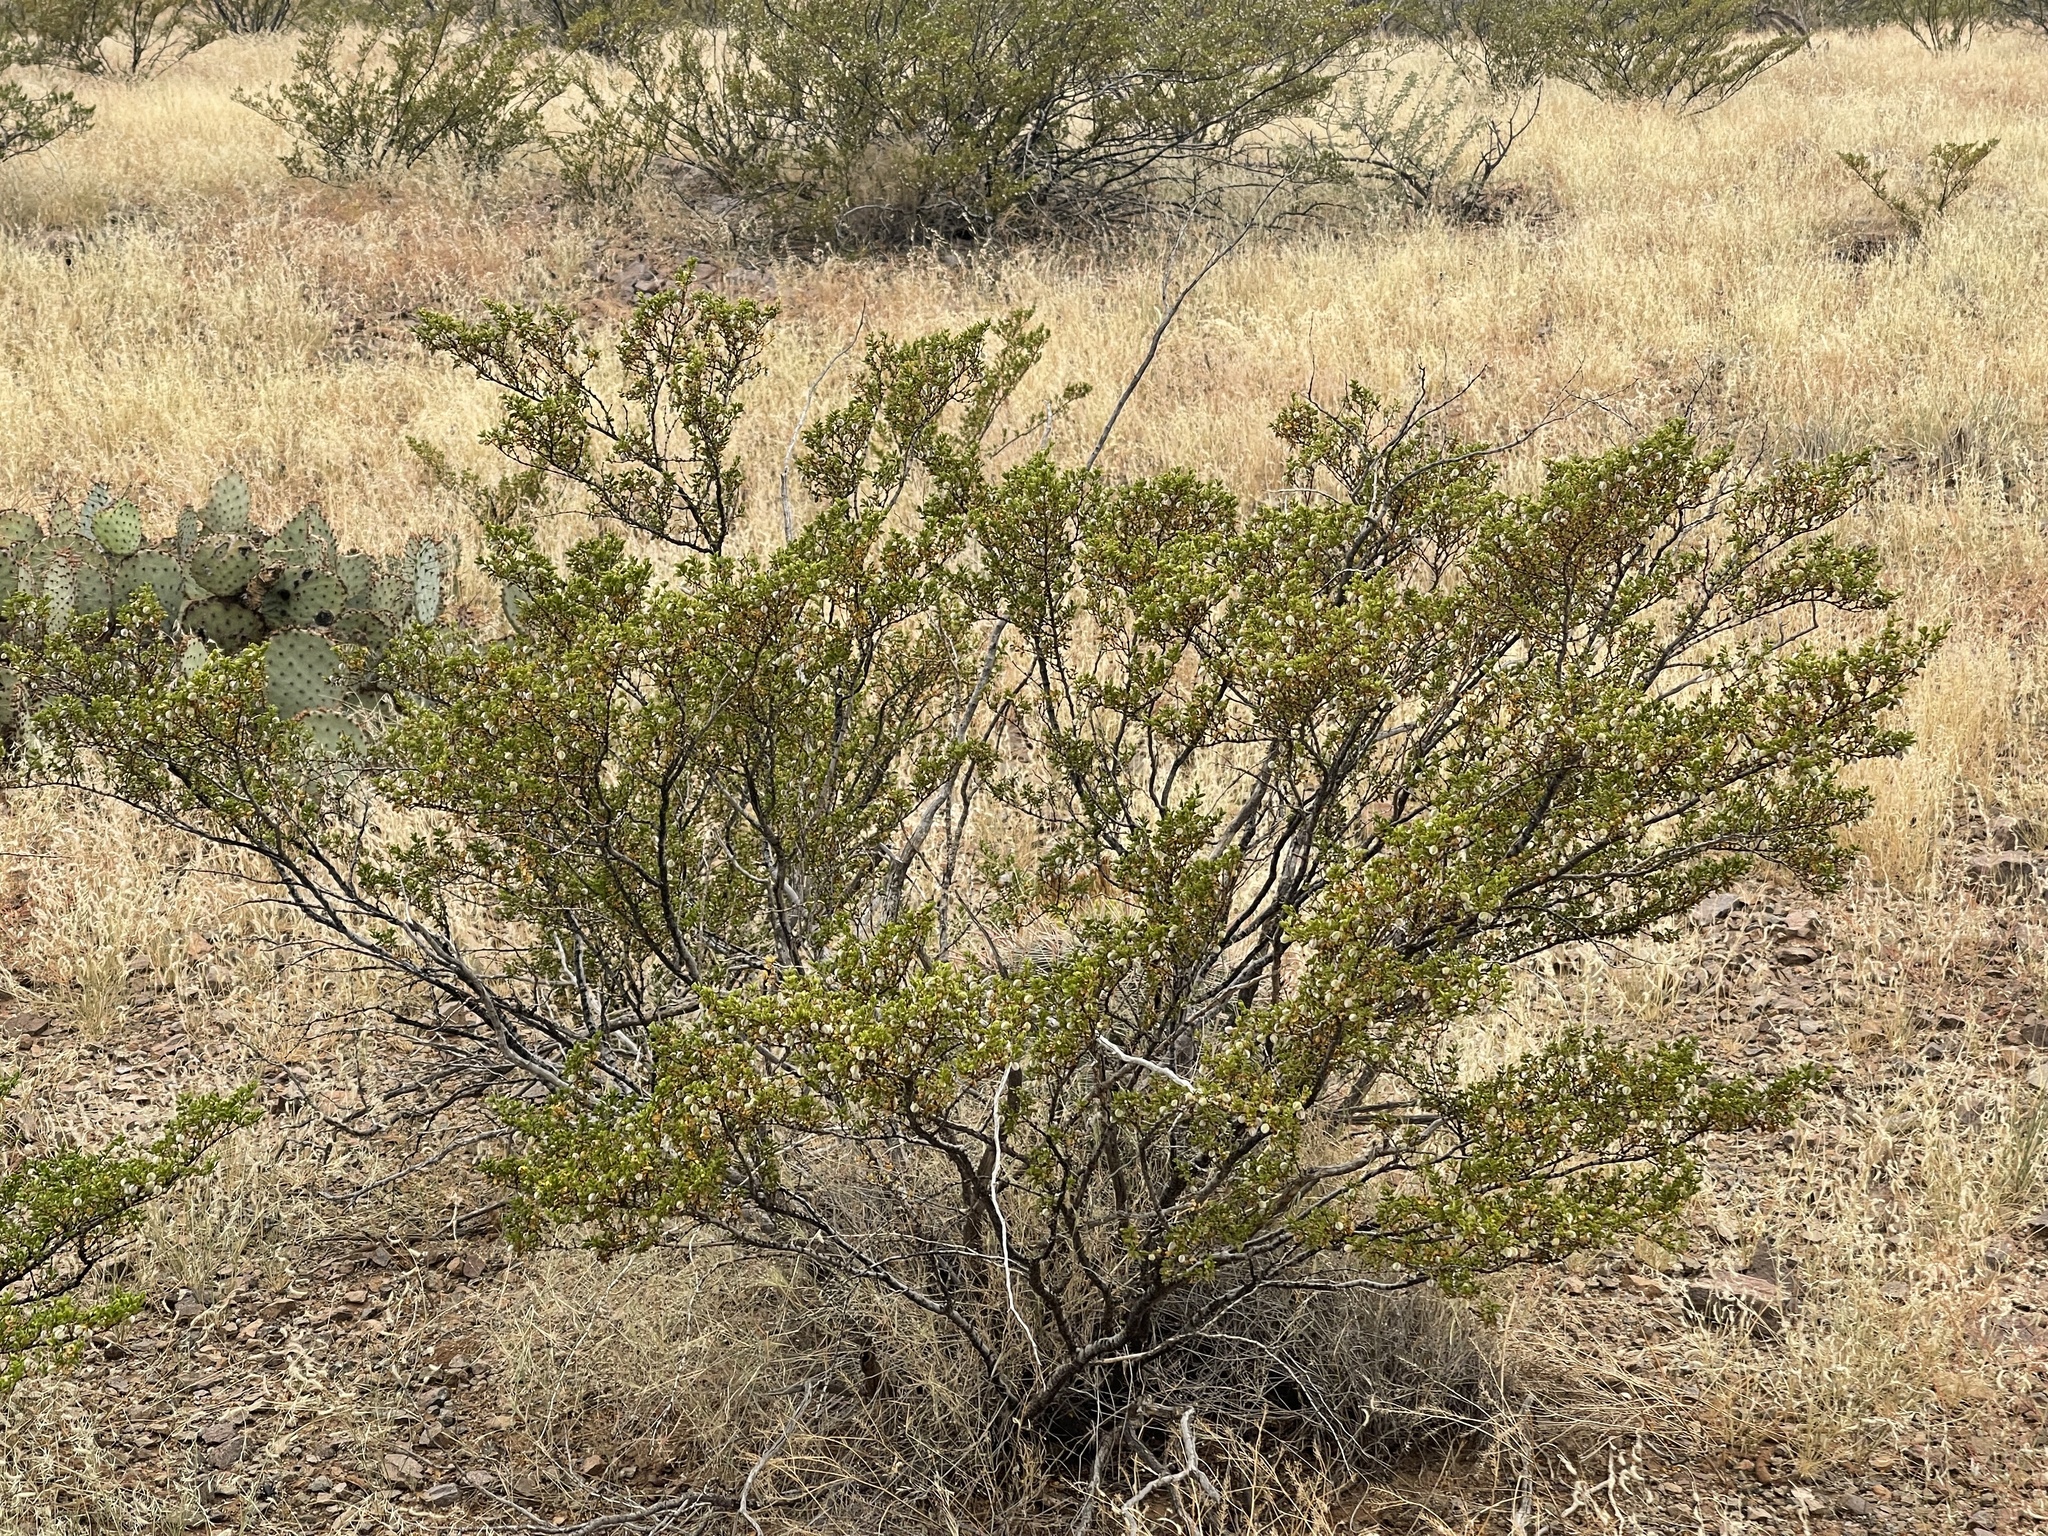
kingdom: Plantae
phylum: Tracheophyta
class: Magnoliopsida
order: Zygophyllales
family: Zygophyllaceae
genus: Larrea
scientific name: Larrea tridentata
